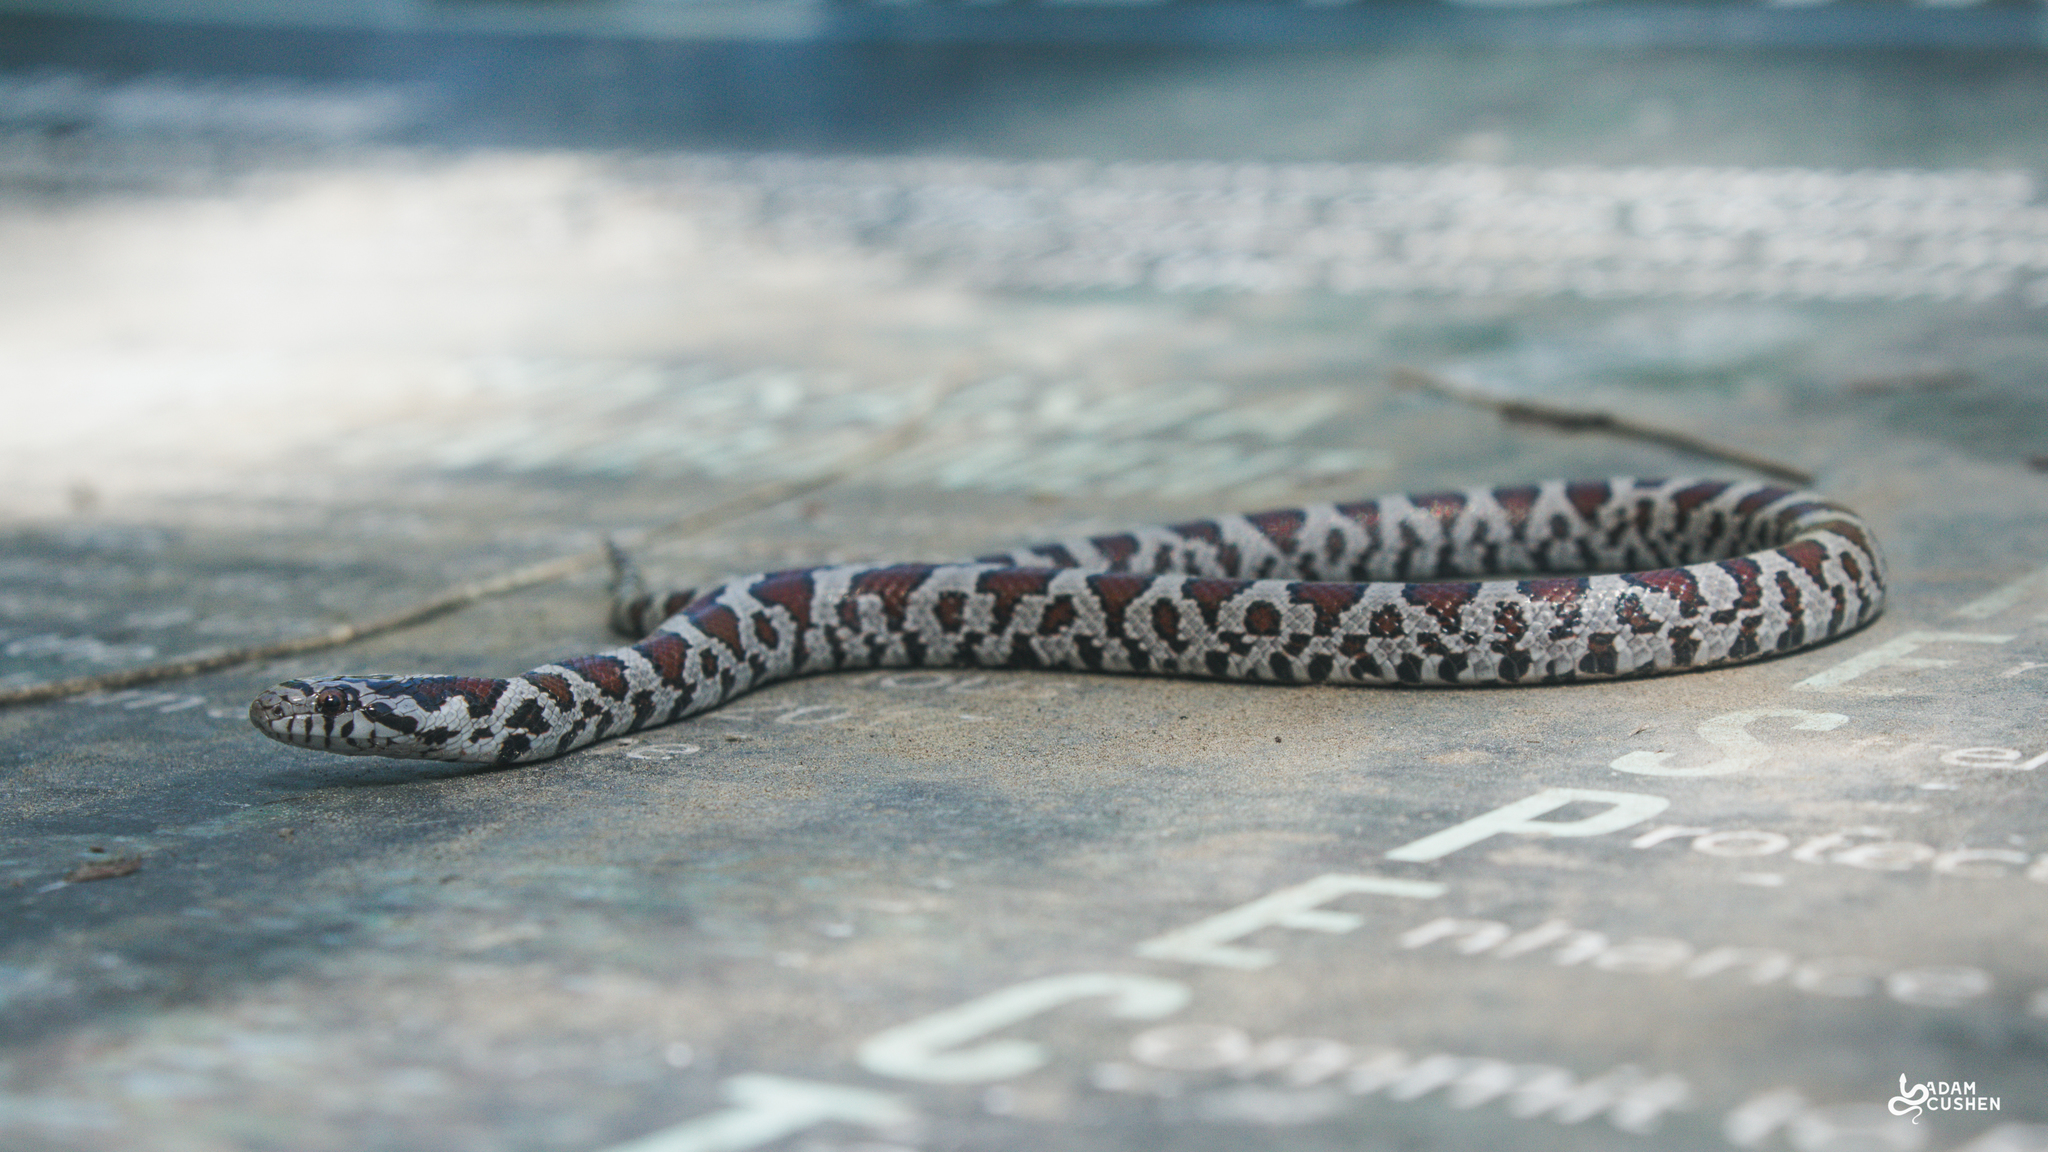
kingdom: Animalia
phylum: Chordata
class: Squamata
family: Colubridae
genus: Lampropeltis
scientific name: Lampropeltis triangulum
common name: Eastern milksnake
